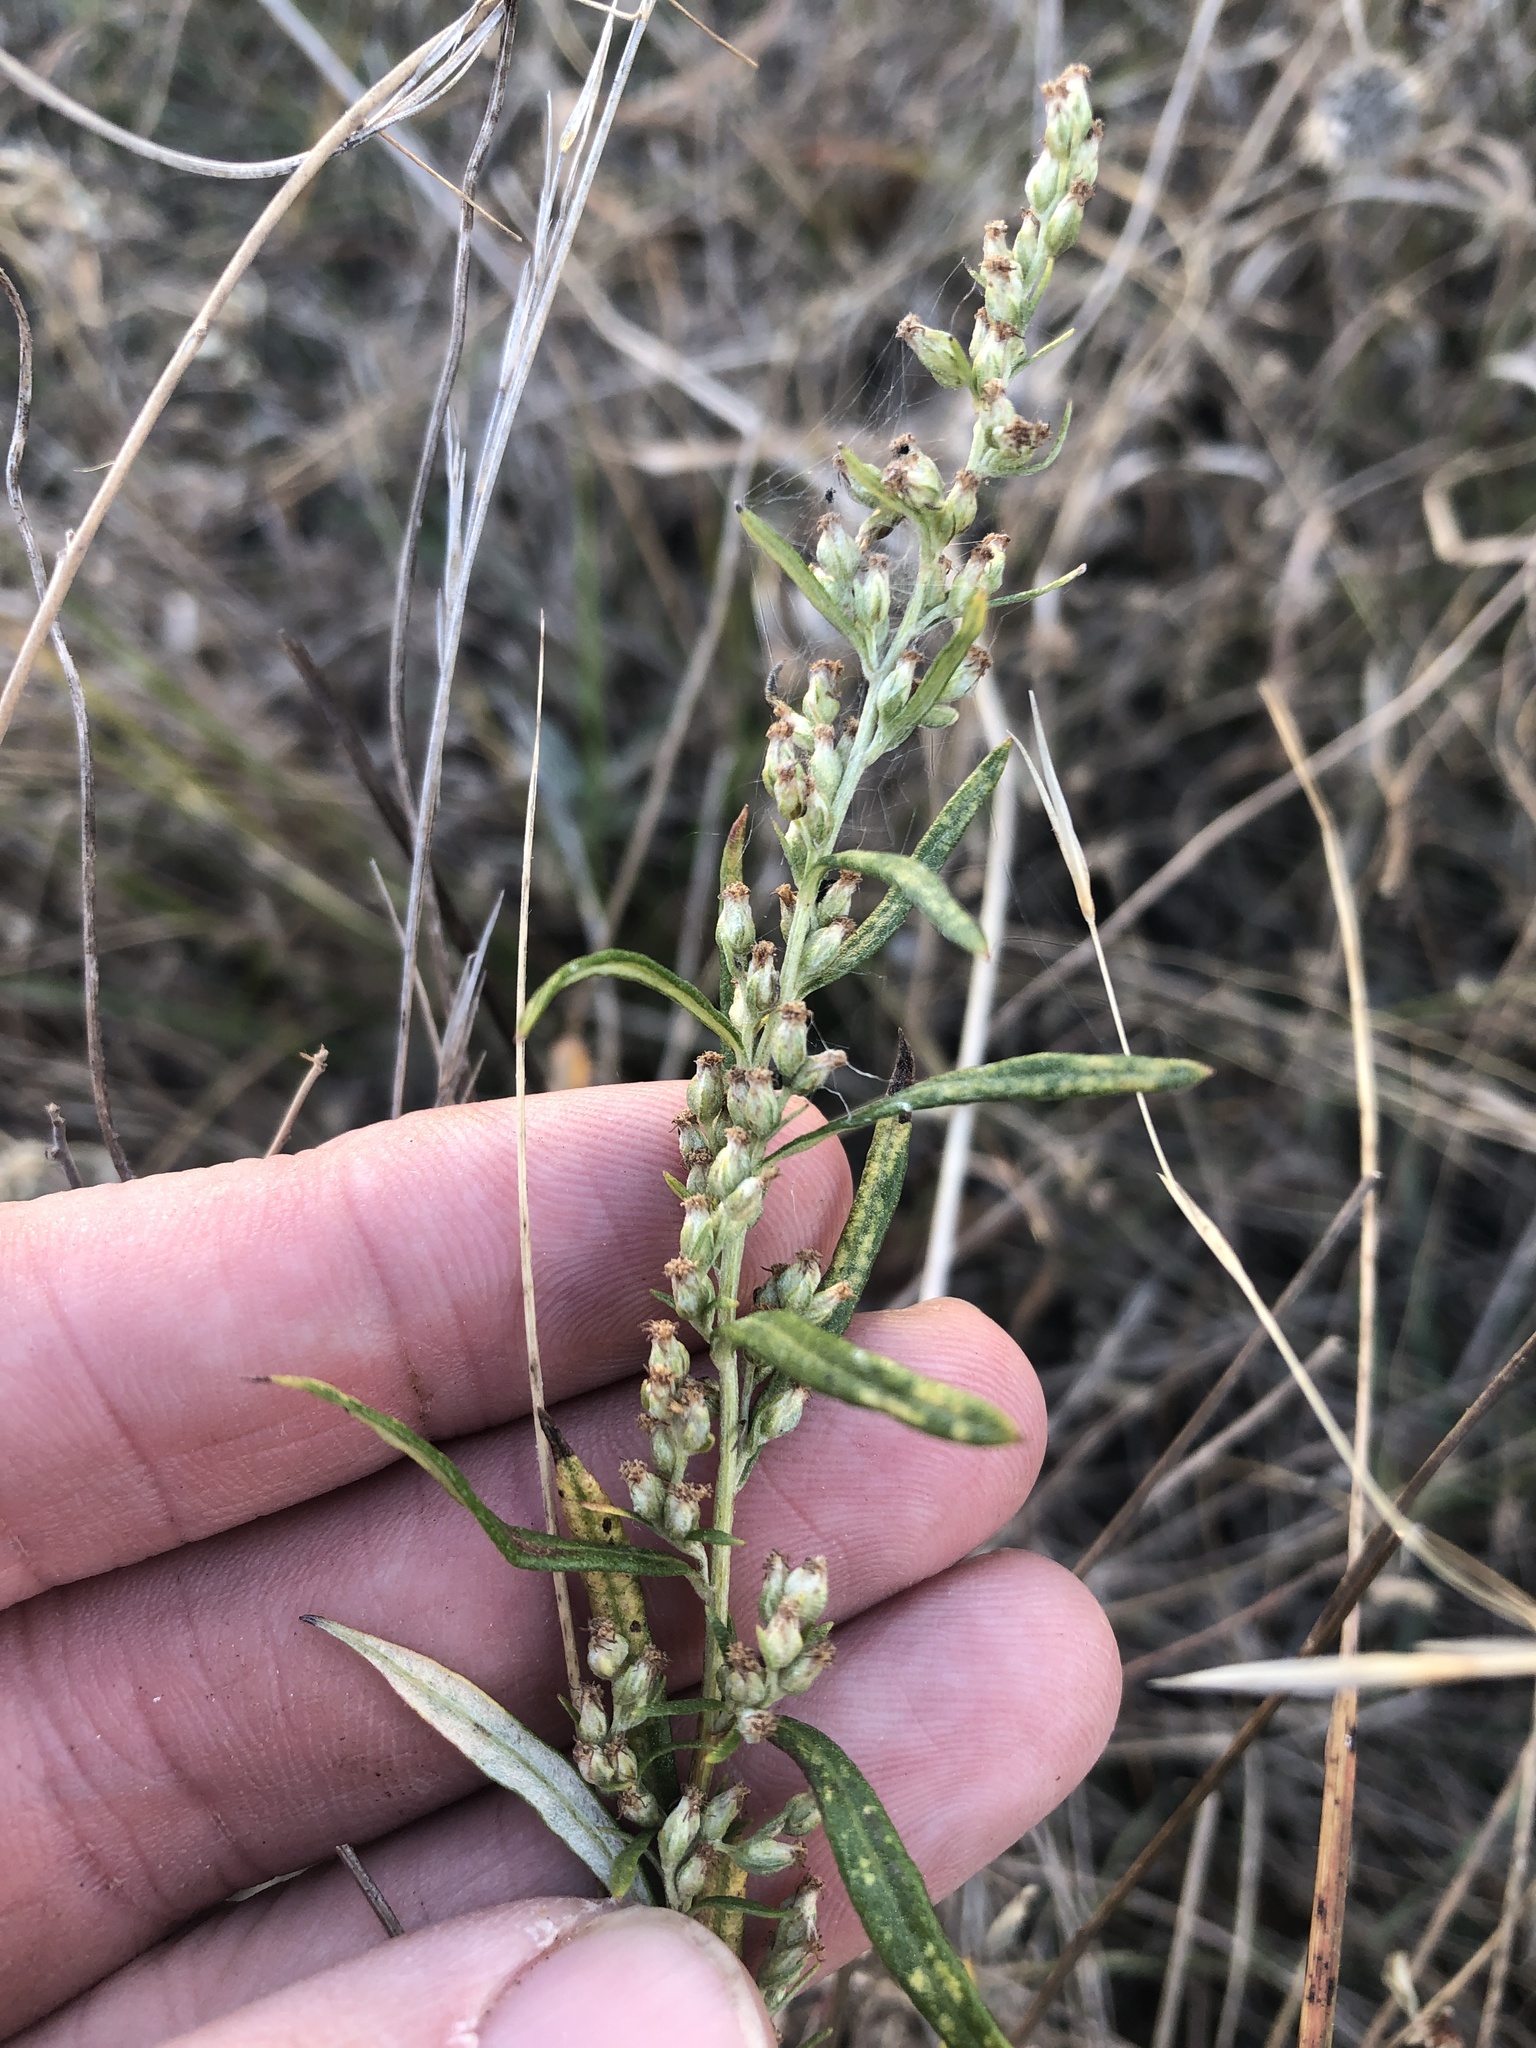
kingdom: Plantae
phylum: Tracheophyta
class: Magnoliopsida
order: Asterales
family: Asteraceae
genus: Artemisia
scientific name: Artemisia ludoviciana
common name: Western mugwort
